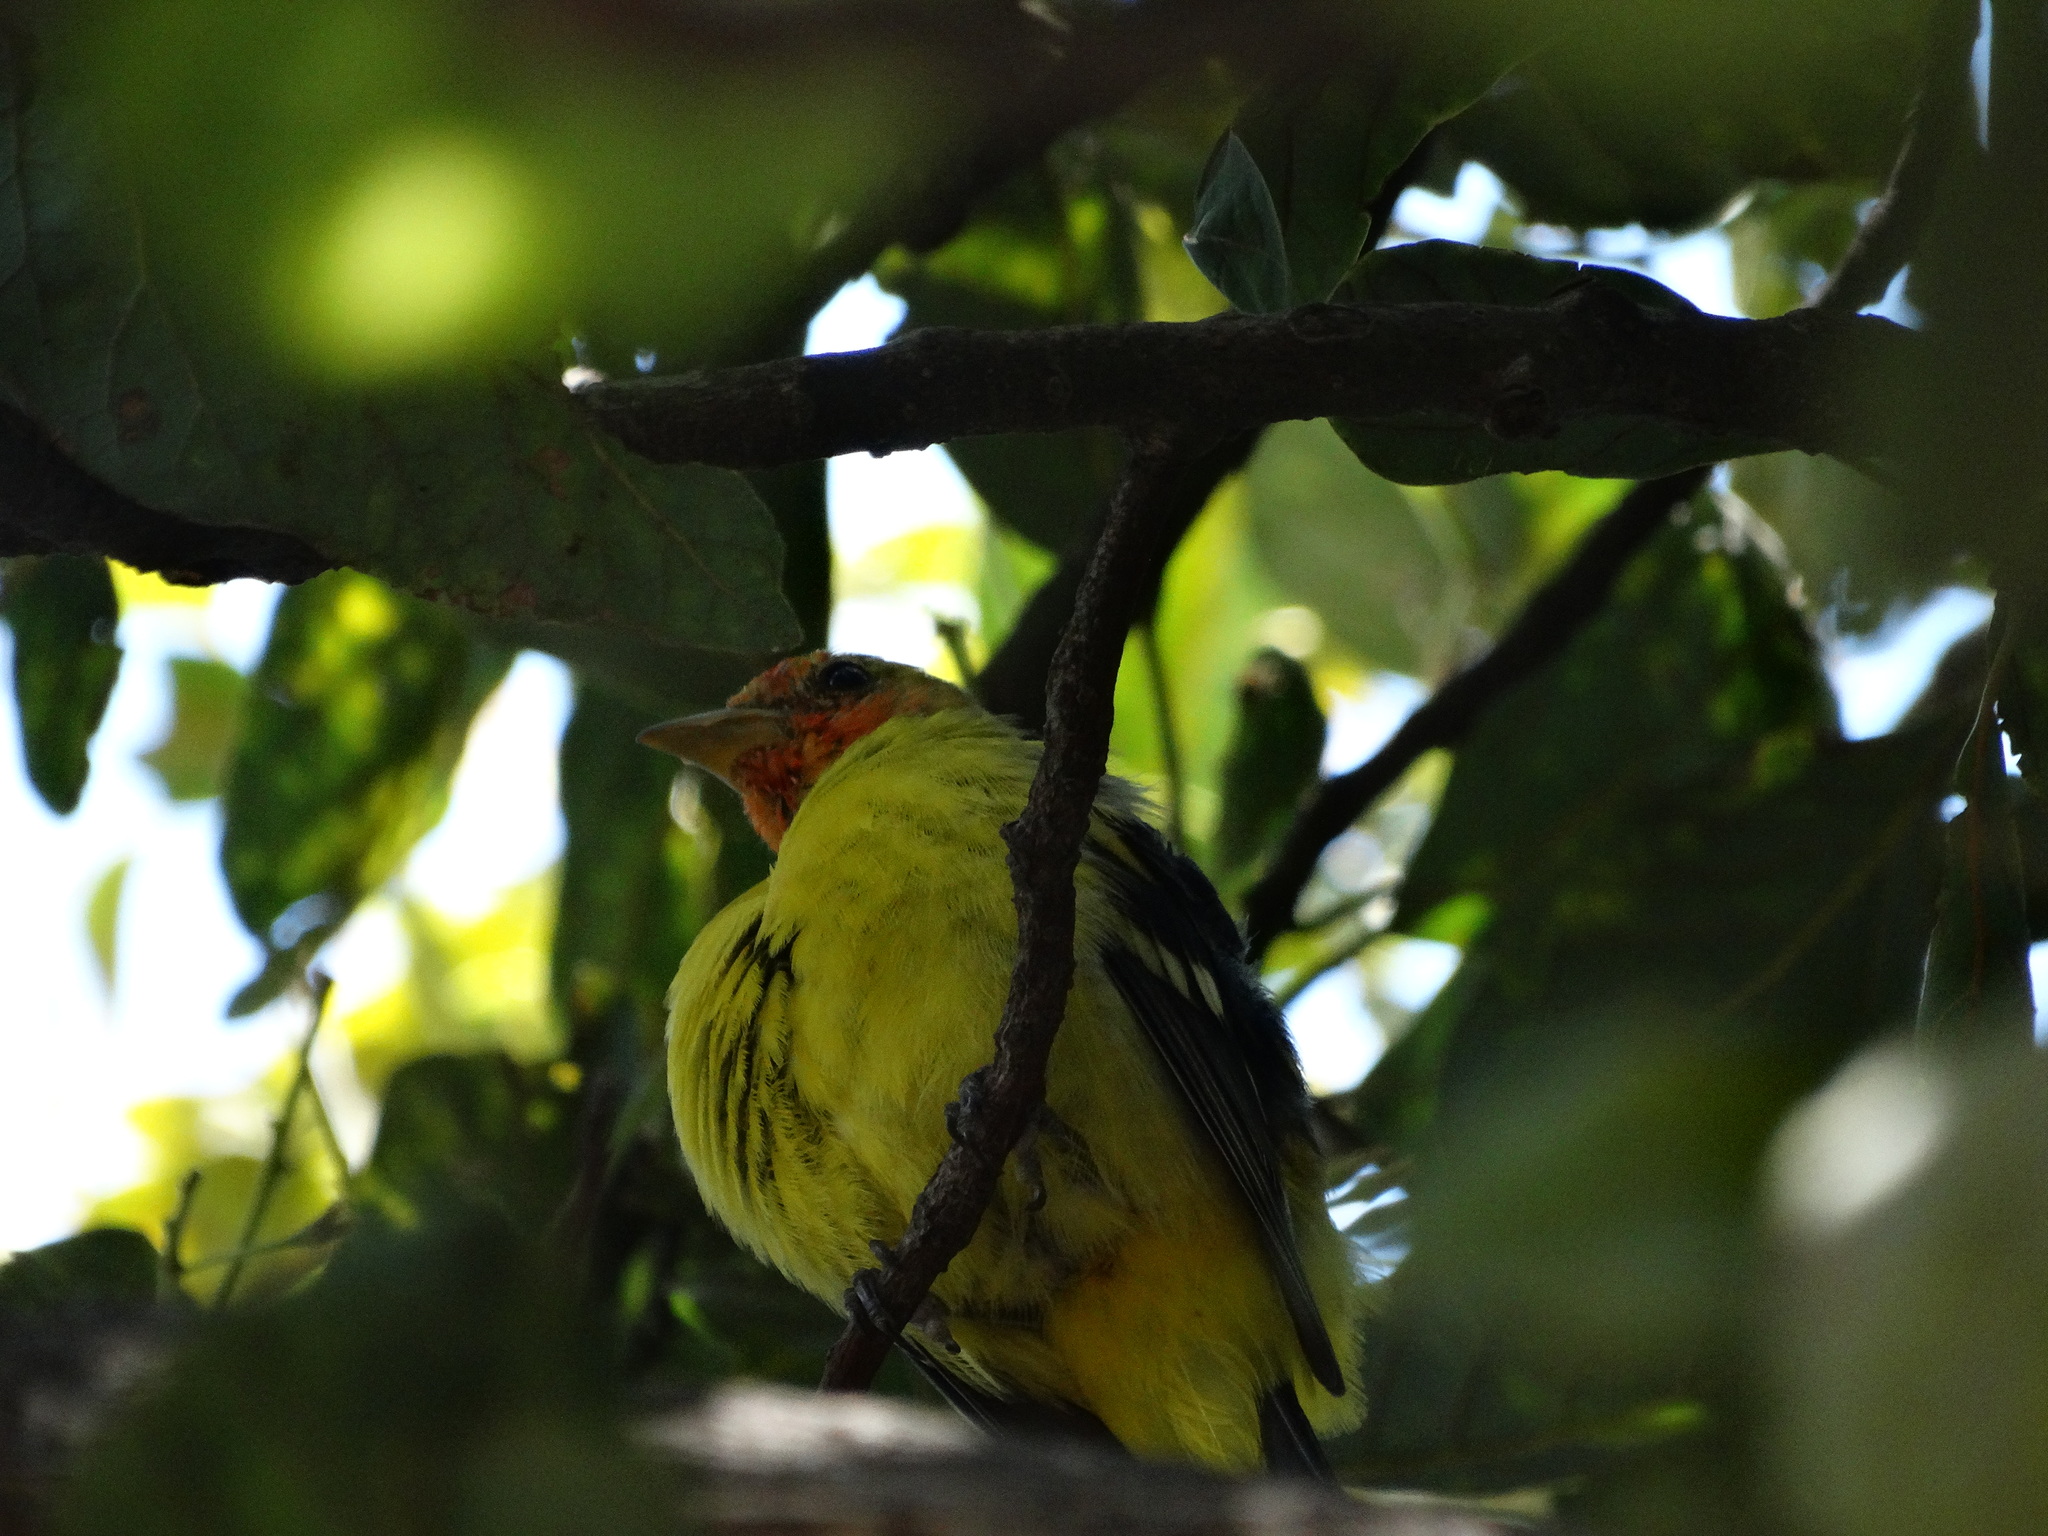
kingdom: Animalia
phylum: Chordata
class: Aves
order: Passeriformes
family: Cardinalidae
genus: Piranga
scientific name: Piranga ludoviciana
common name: Western tanager
